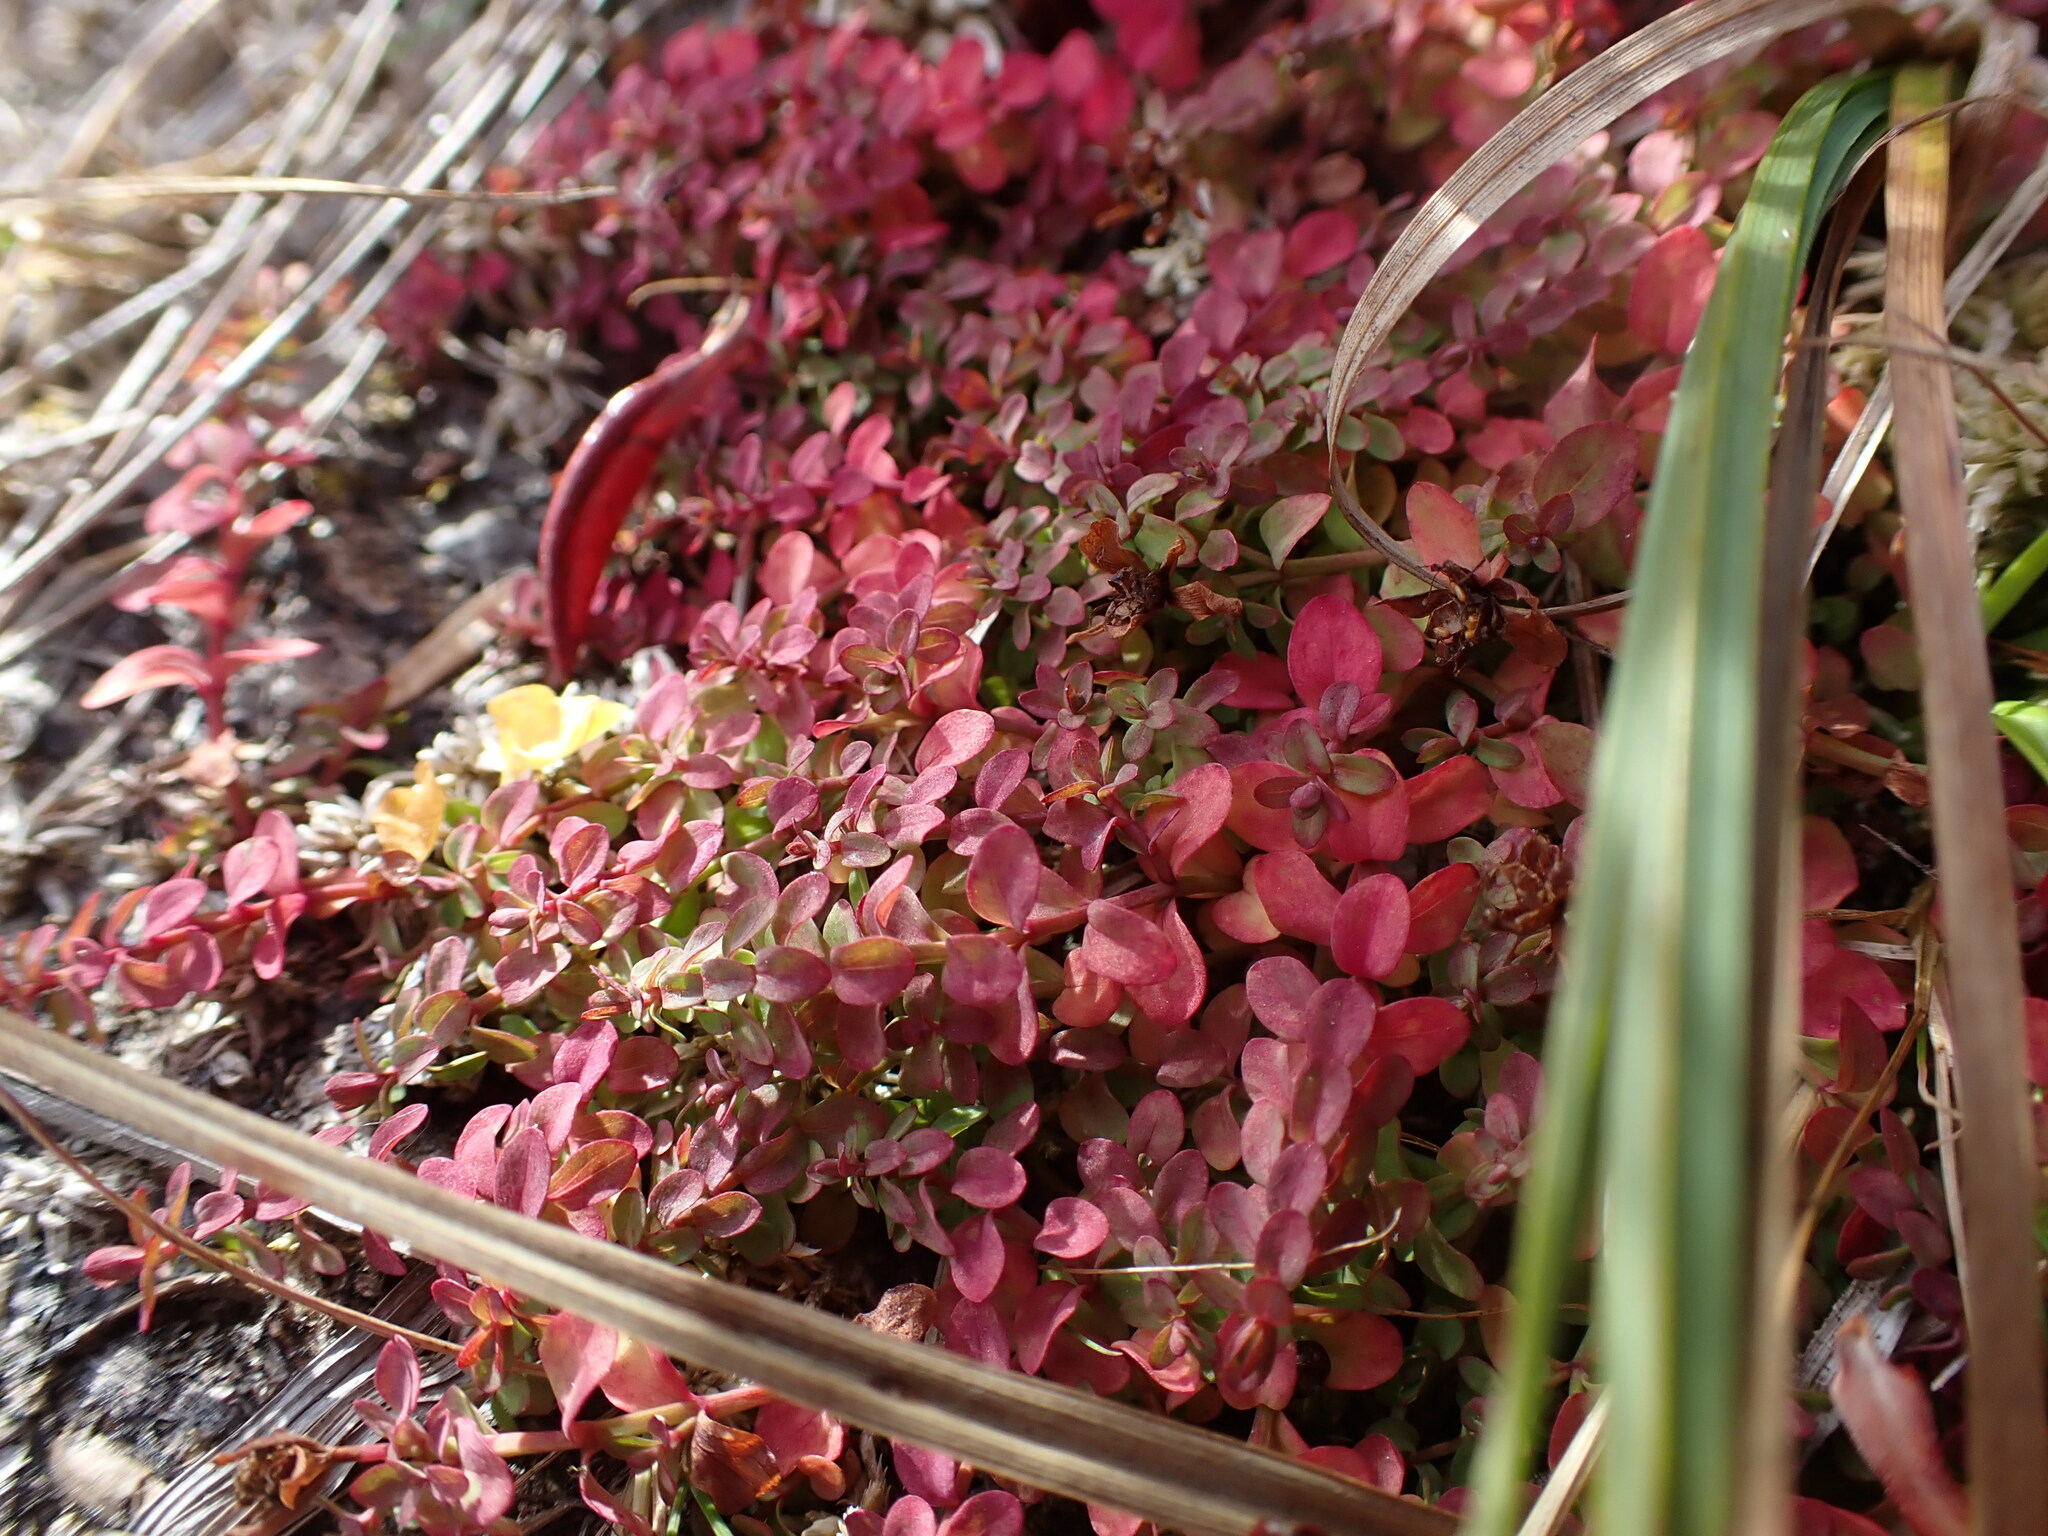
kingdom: Plantae
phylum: Tracheophyta
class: Magnoliopsida
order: Malpighiales
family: Hypericaceae
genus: Hypericum
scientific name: Hypericum anagalloides
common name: Bog st. john's-wort
